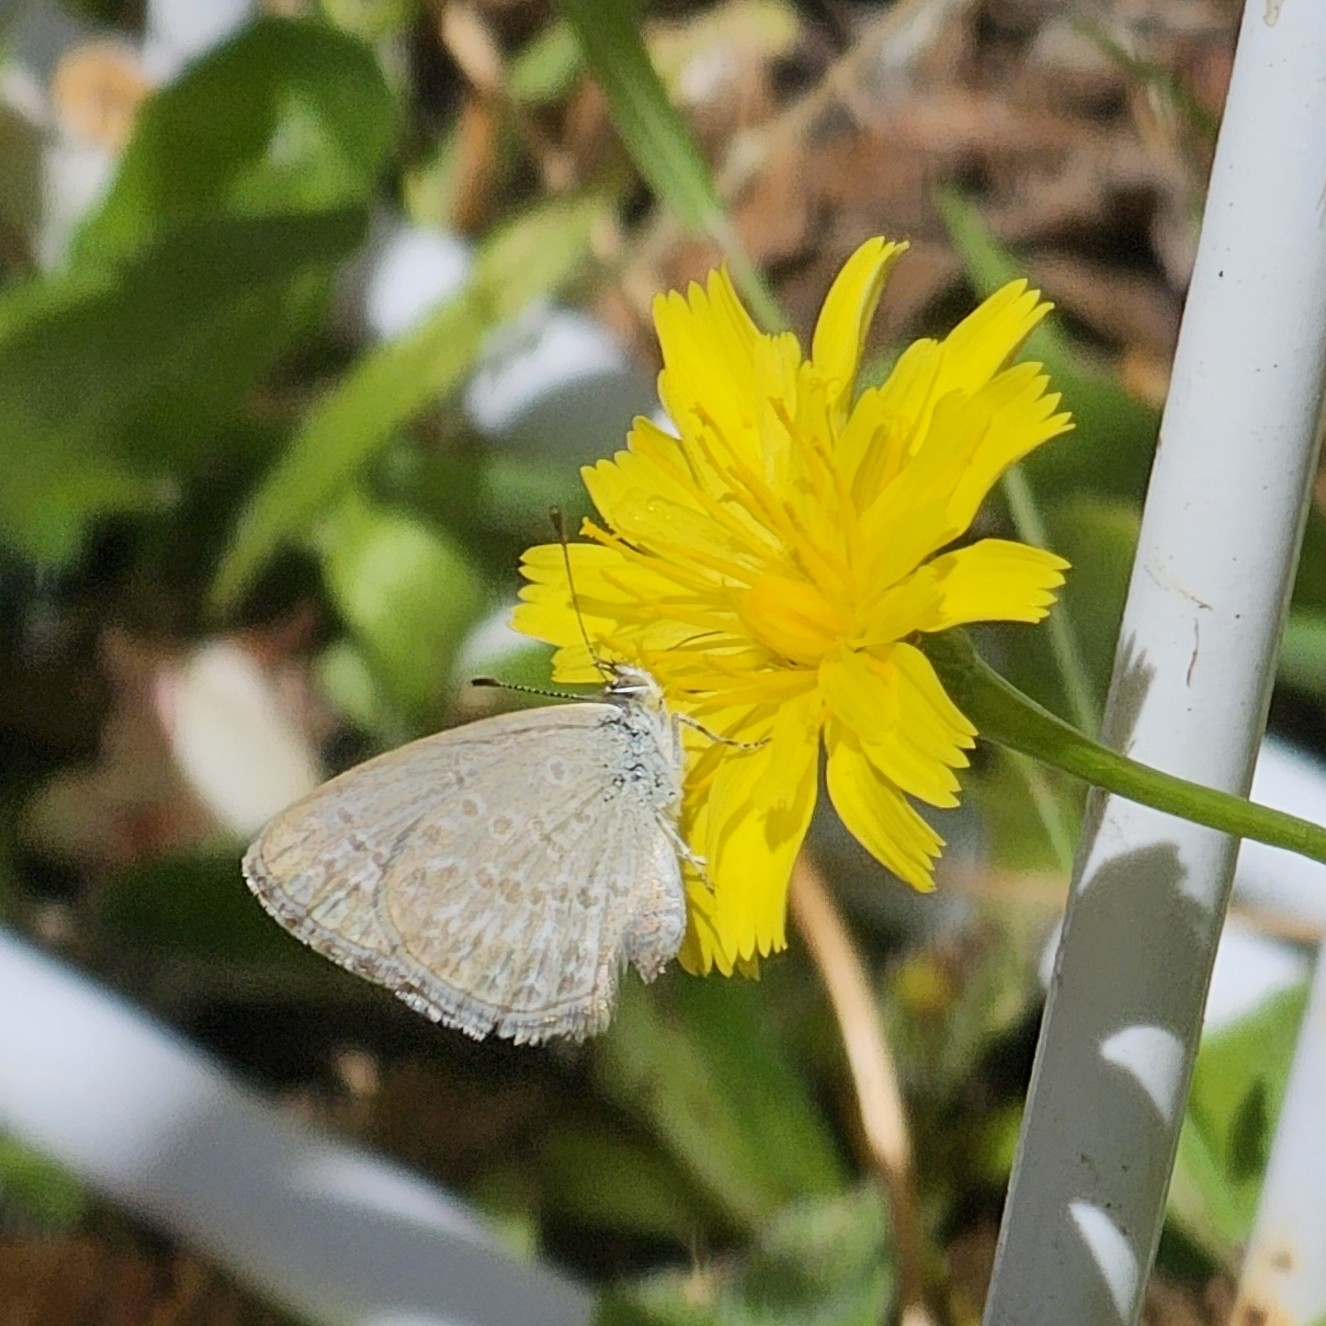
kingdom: Animalia
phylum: Arthropoda
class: Insecta
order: Lepidoptera
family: Lycaenidae
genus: Zizina
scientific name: Zizina otis
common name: Lesser grass blue
